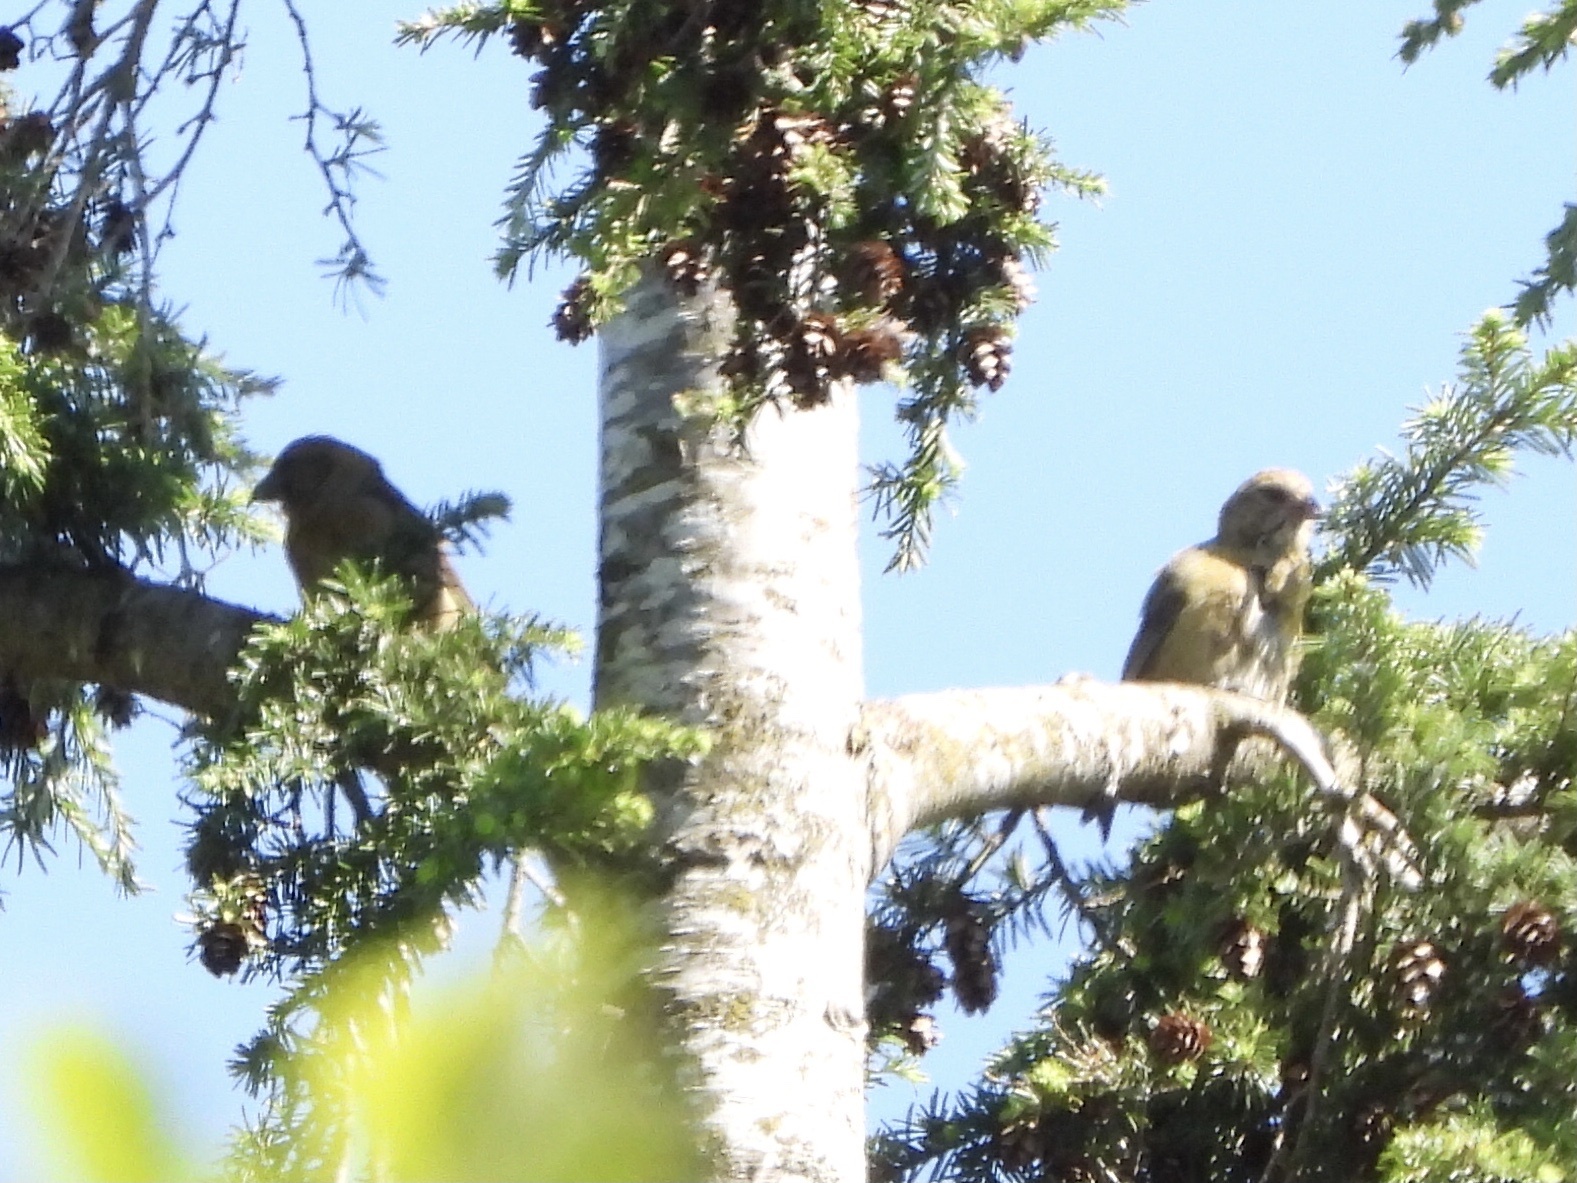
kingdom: Animalia
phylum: Chordata
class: Aves
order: Passeriformes
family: Fringillidae
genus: Loxia
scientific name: Loxia curvirostra
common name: Red crossbill
